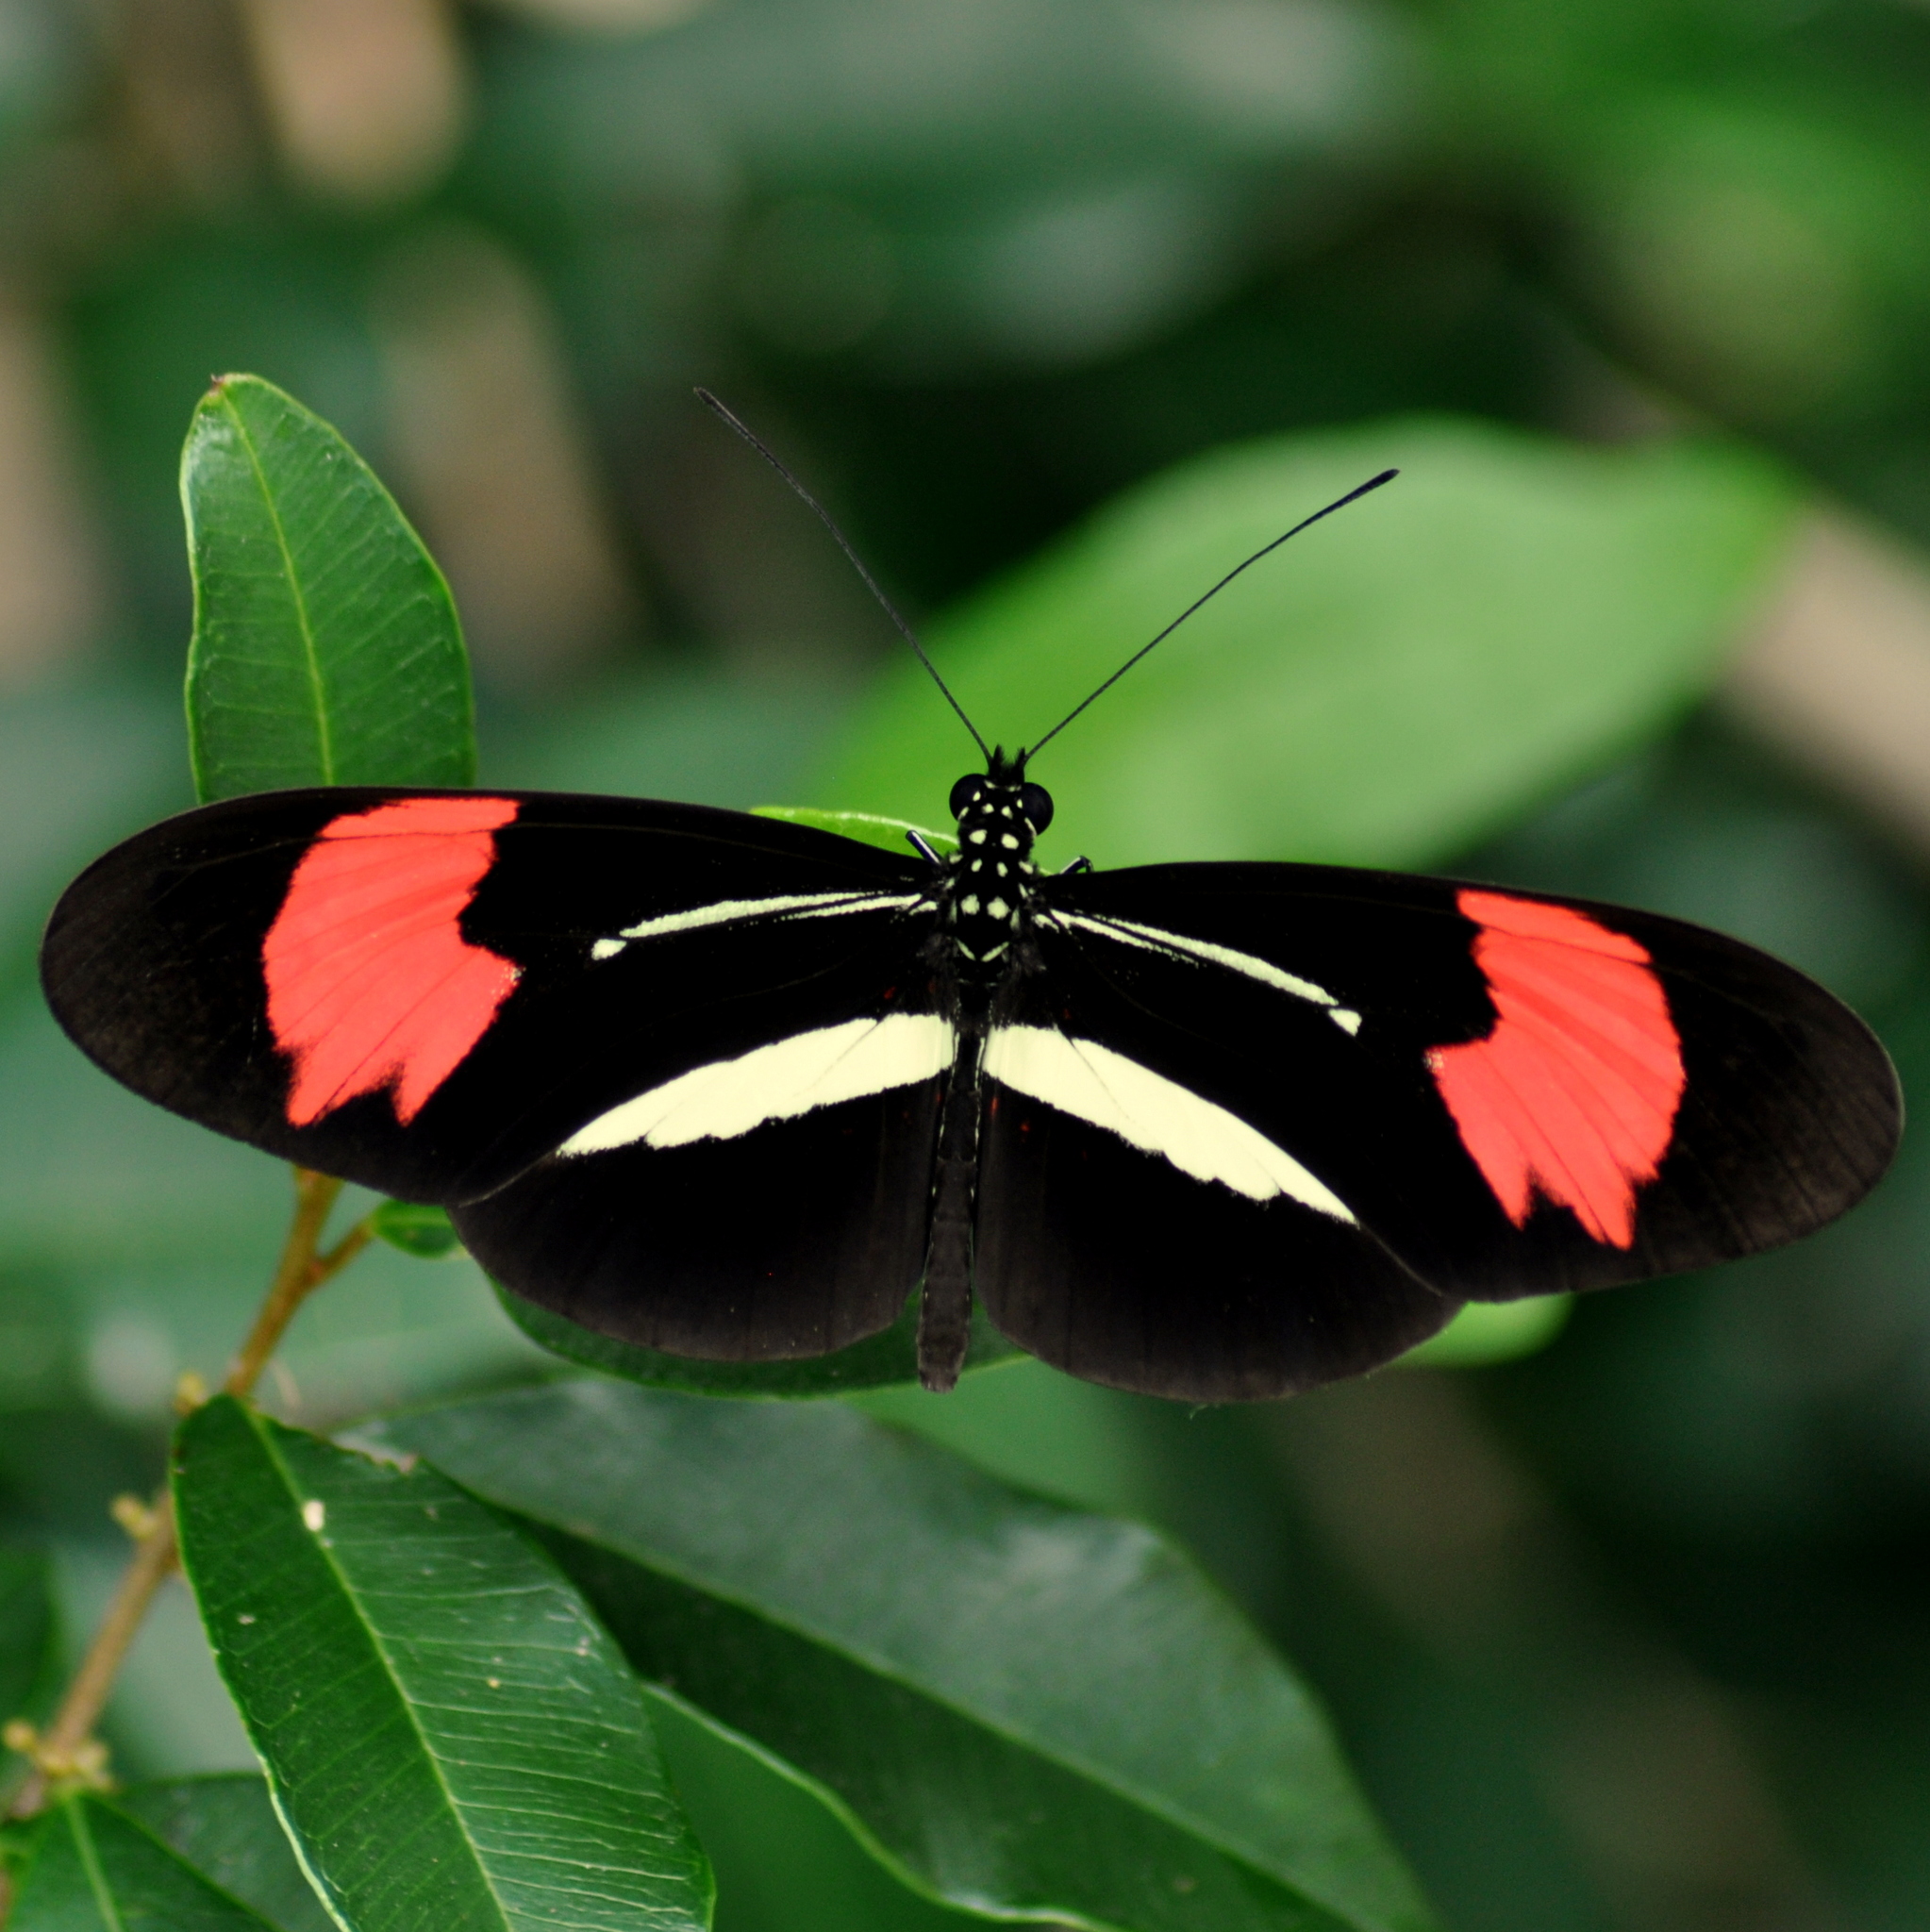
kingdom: Animalia
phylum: Arthropoda
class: Insecta
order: Lepidoptera
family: Nymphalidae
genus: Heliconius
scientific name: Heliconius erato
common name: Common patch longwing
